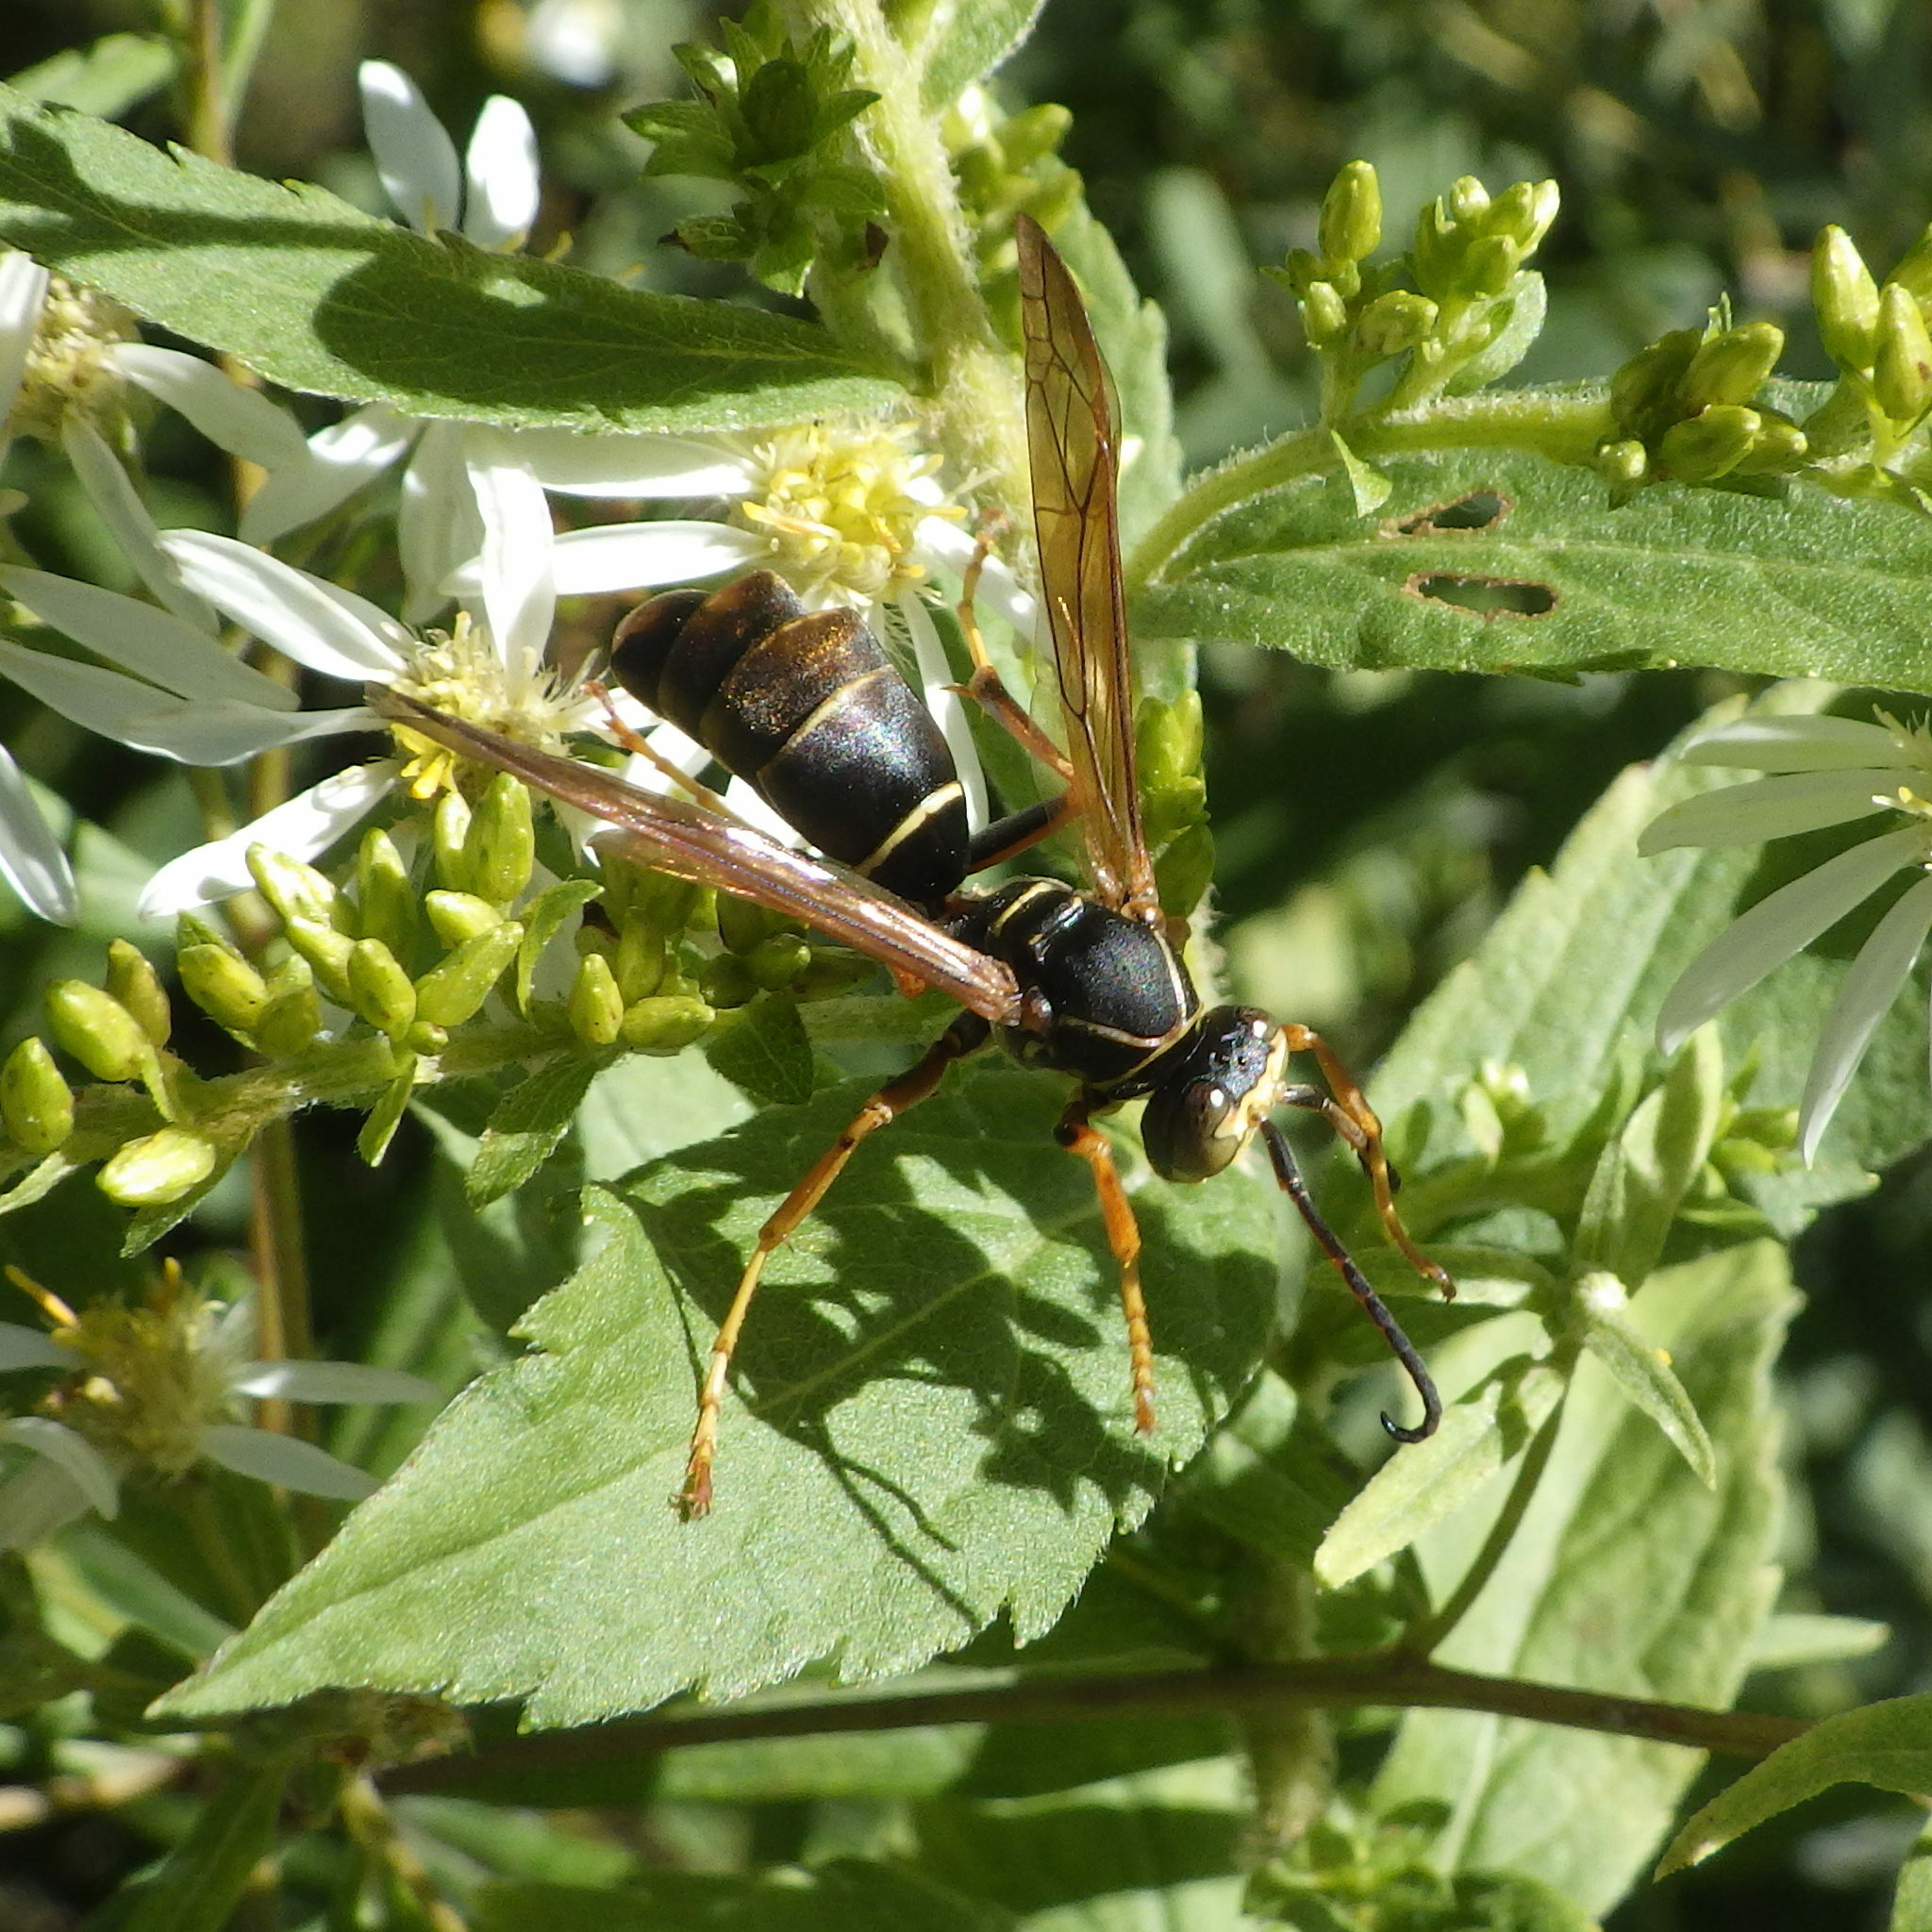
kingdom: Animalia
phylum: Arthropoda
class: Insecta
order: Strepsiptera
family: Xenidae
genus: Xenos
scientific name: Xenos pecki
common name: Twisted wing parasite
